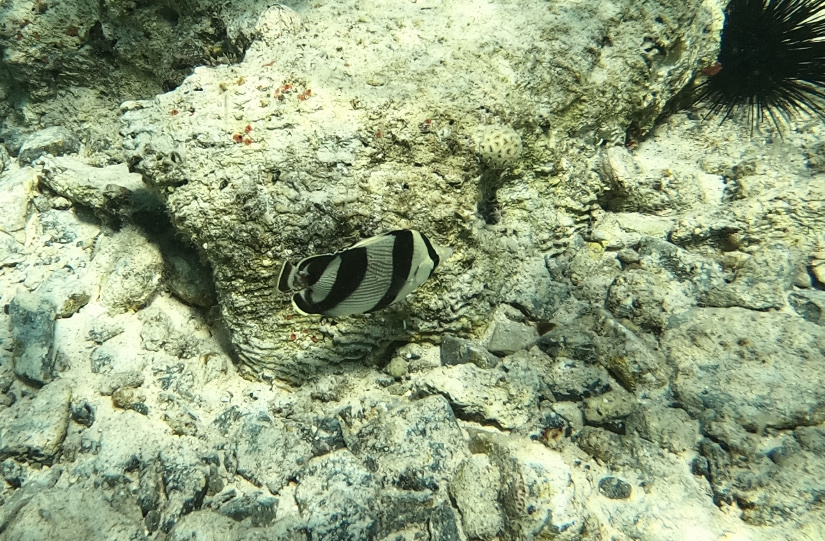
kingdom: Animalia
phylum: Chordata
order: Perciformes
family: Chaetodontidae
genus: Chaetodon
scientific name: Chaetodon striatus
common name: Banded butterflyfish
